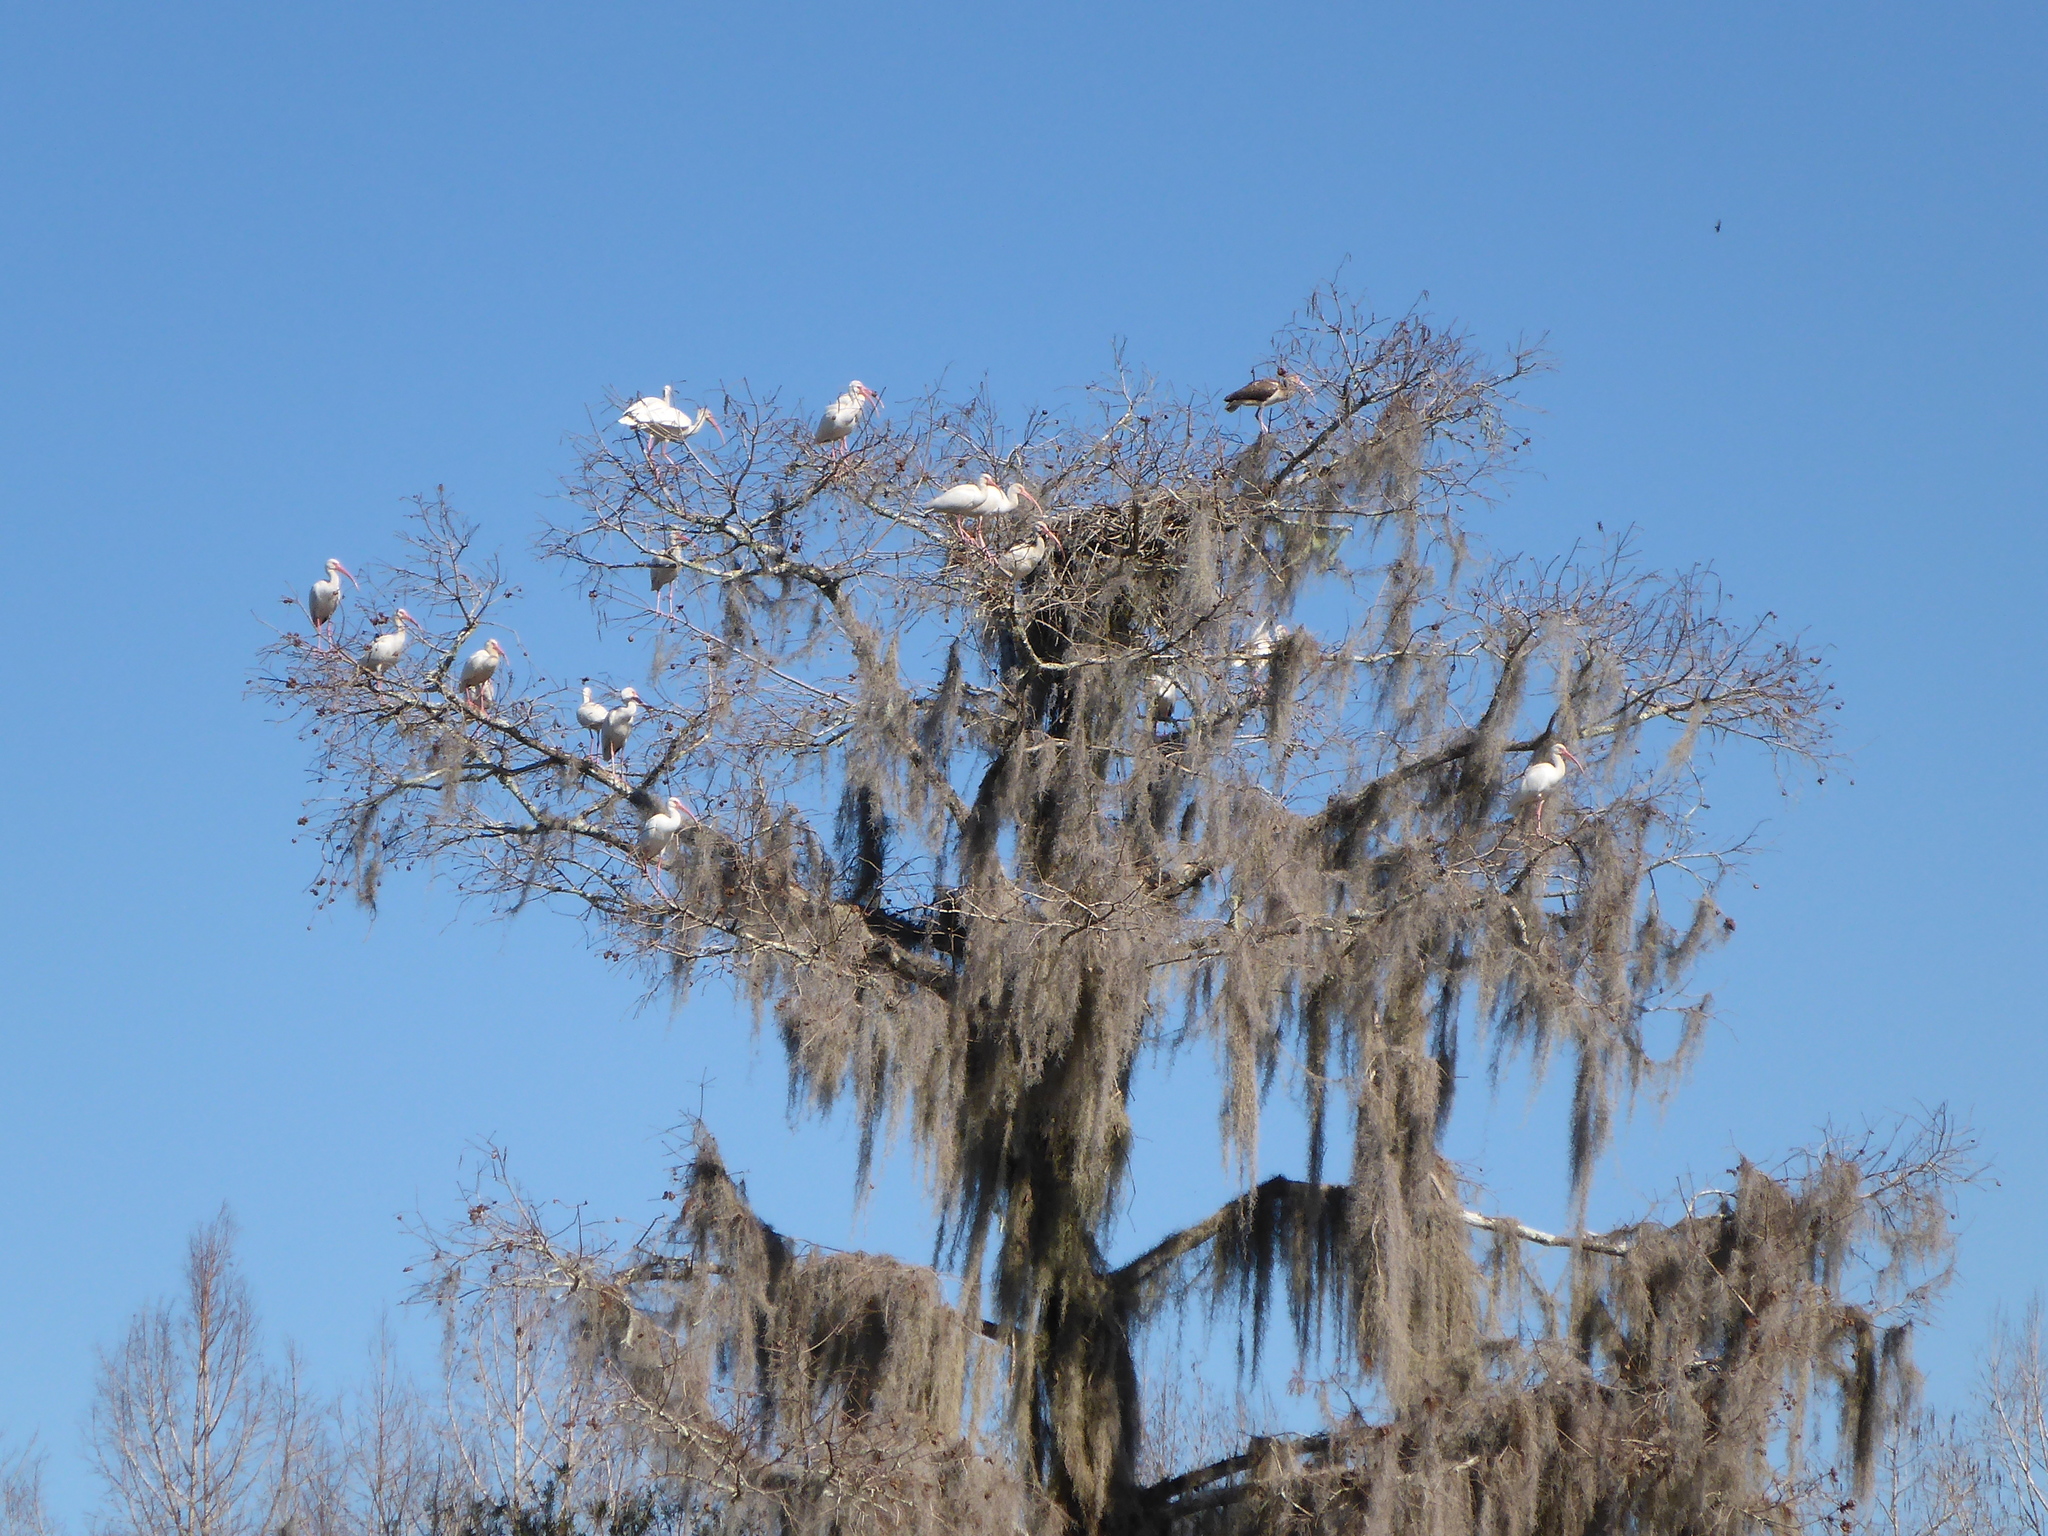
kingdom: Animalia
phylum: Chordata
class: Aves
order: Pelecaniformes
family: Threskiornithidae
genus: Eudocimus
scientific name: Eudocimus albus
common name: White ibis
